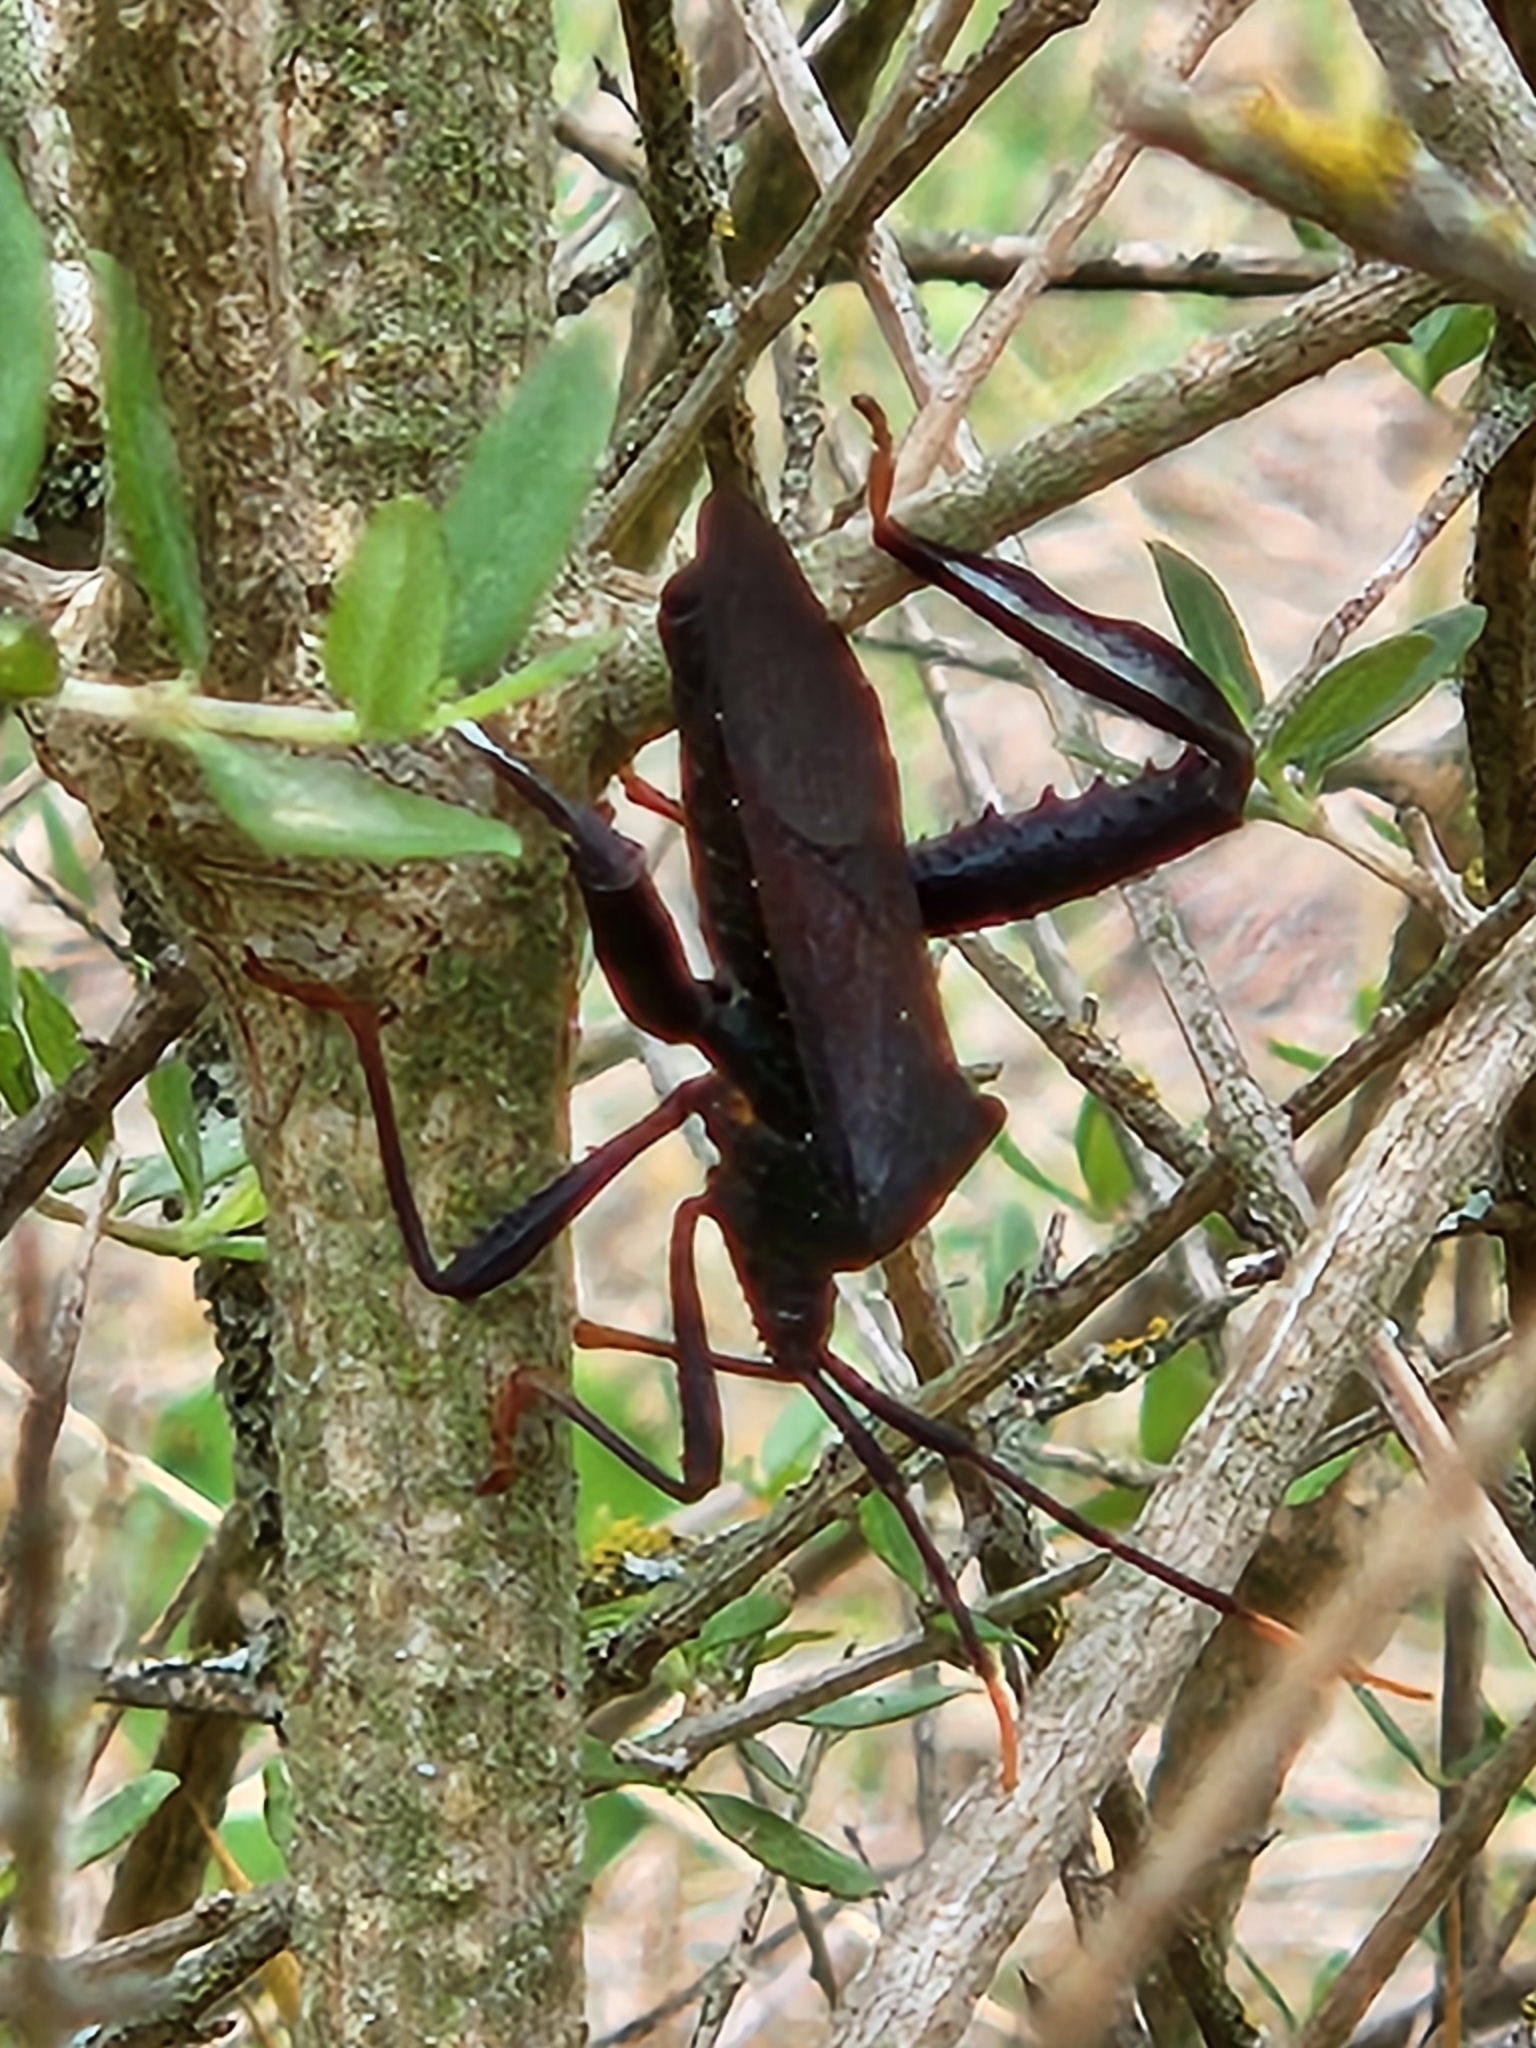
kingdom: Animalia
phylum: Arthropoda
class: Insecta
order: Hemiptera
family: Coreidae
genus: Acanthocephala
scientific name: Acanthocephala terminalis
